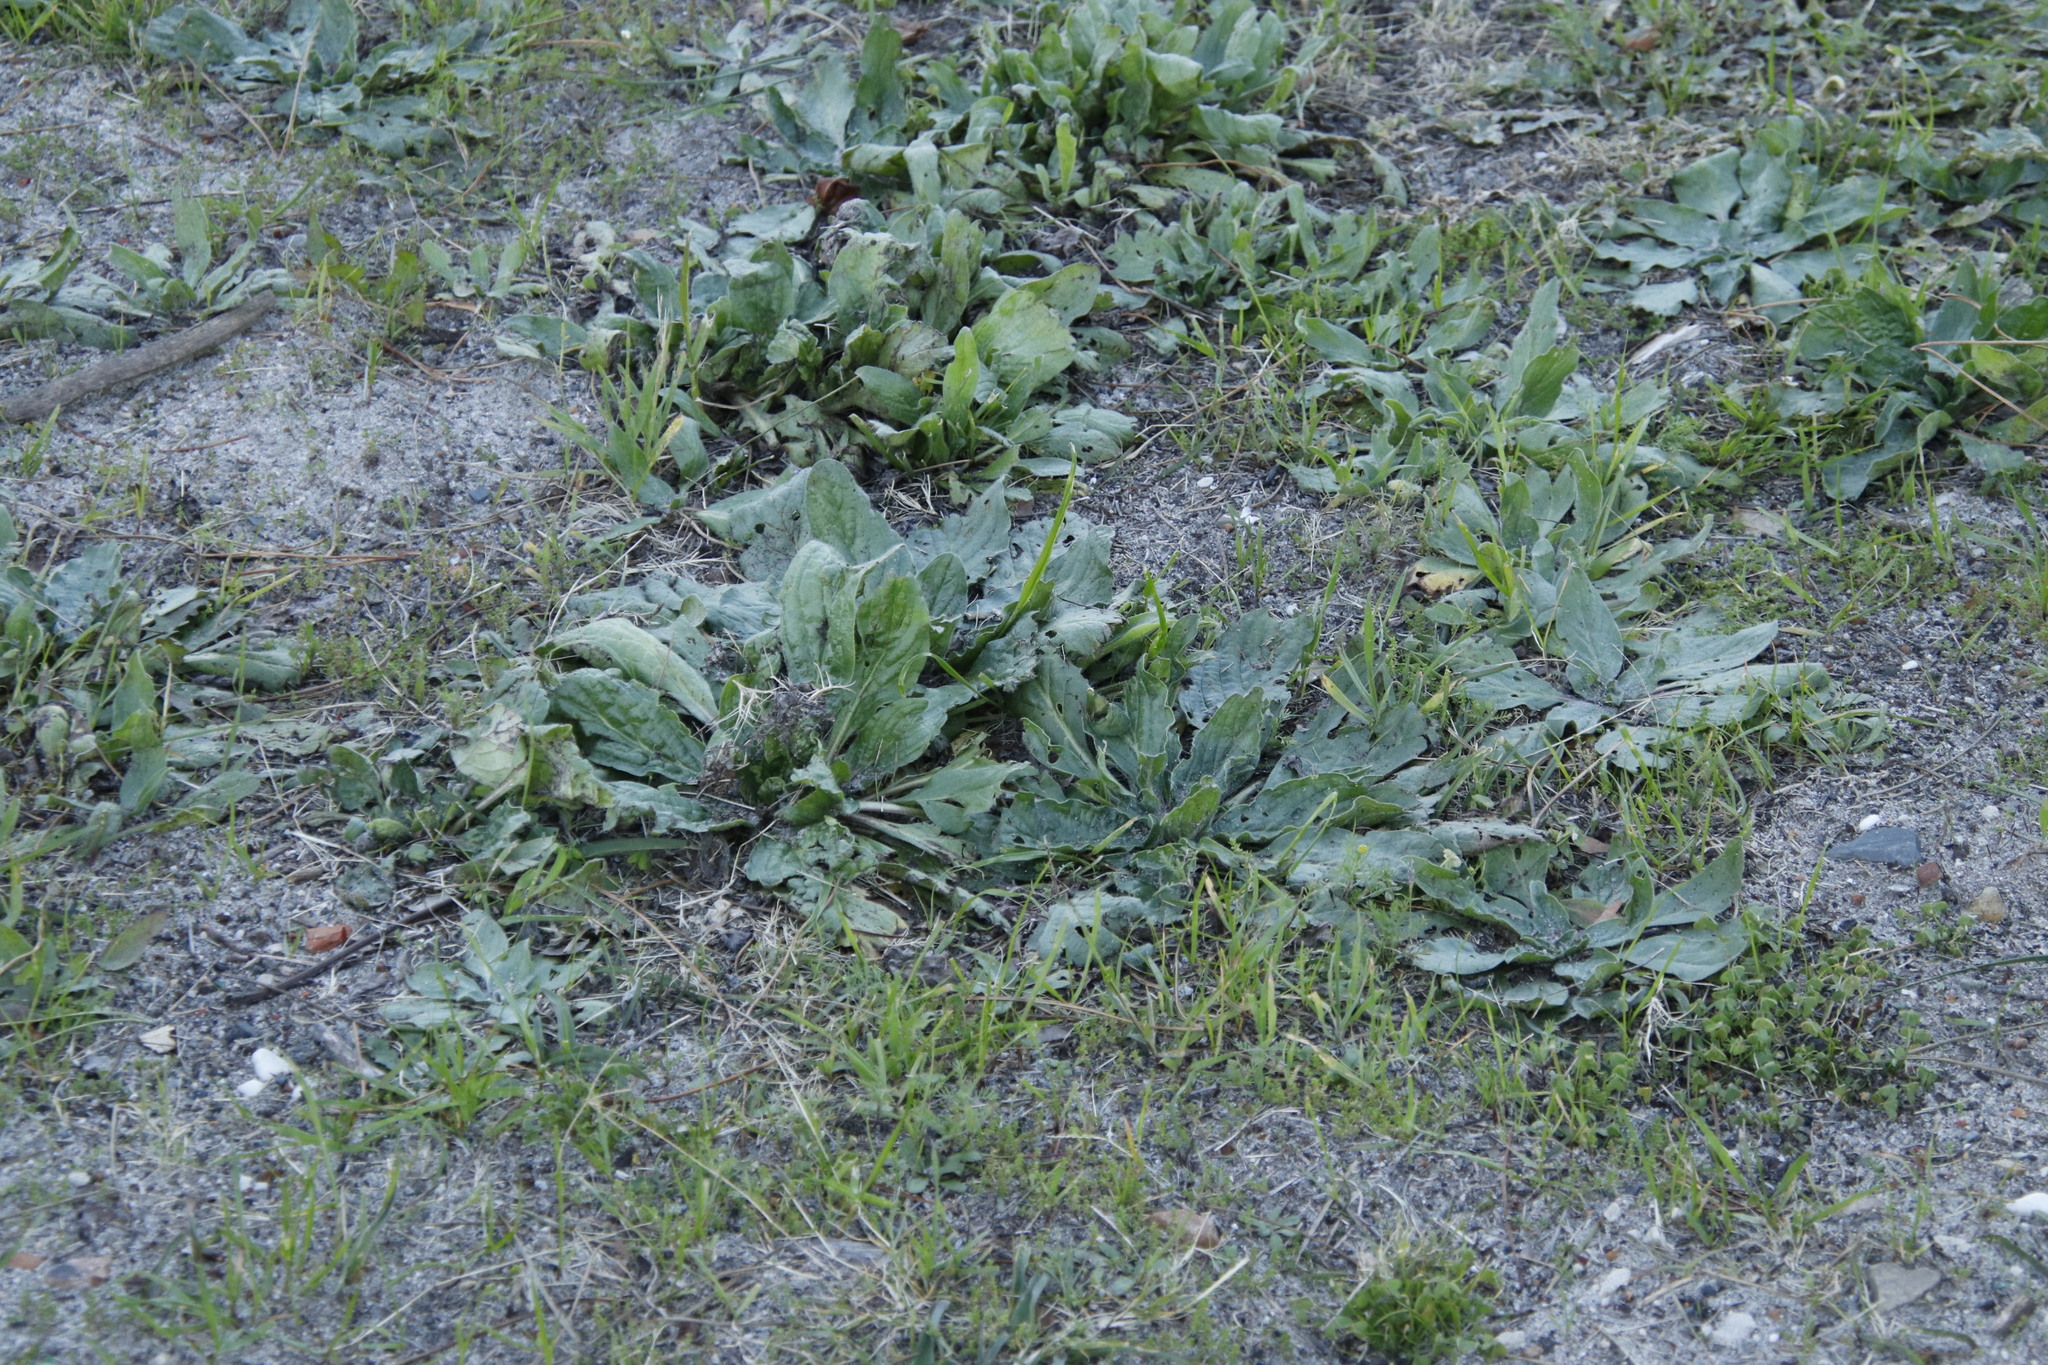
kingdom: Plantae
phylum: Tracheophyta
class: Magnoliopsida
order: Boraginales
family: Boraginaceae
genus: Echium
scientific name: Echium plantagineum
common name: Purple viper's-bugloss
